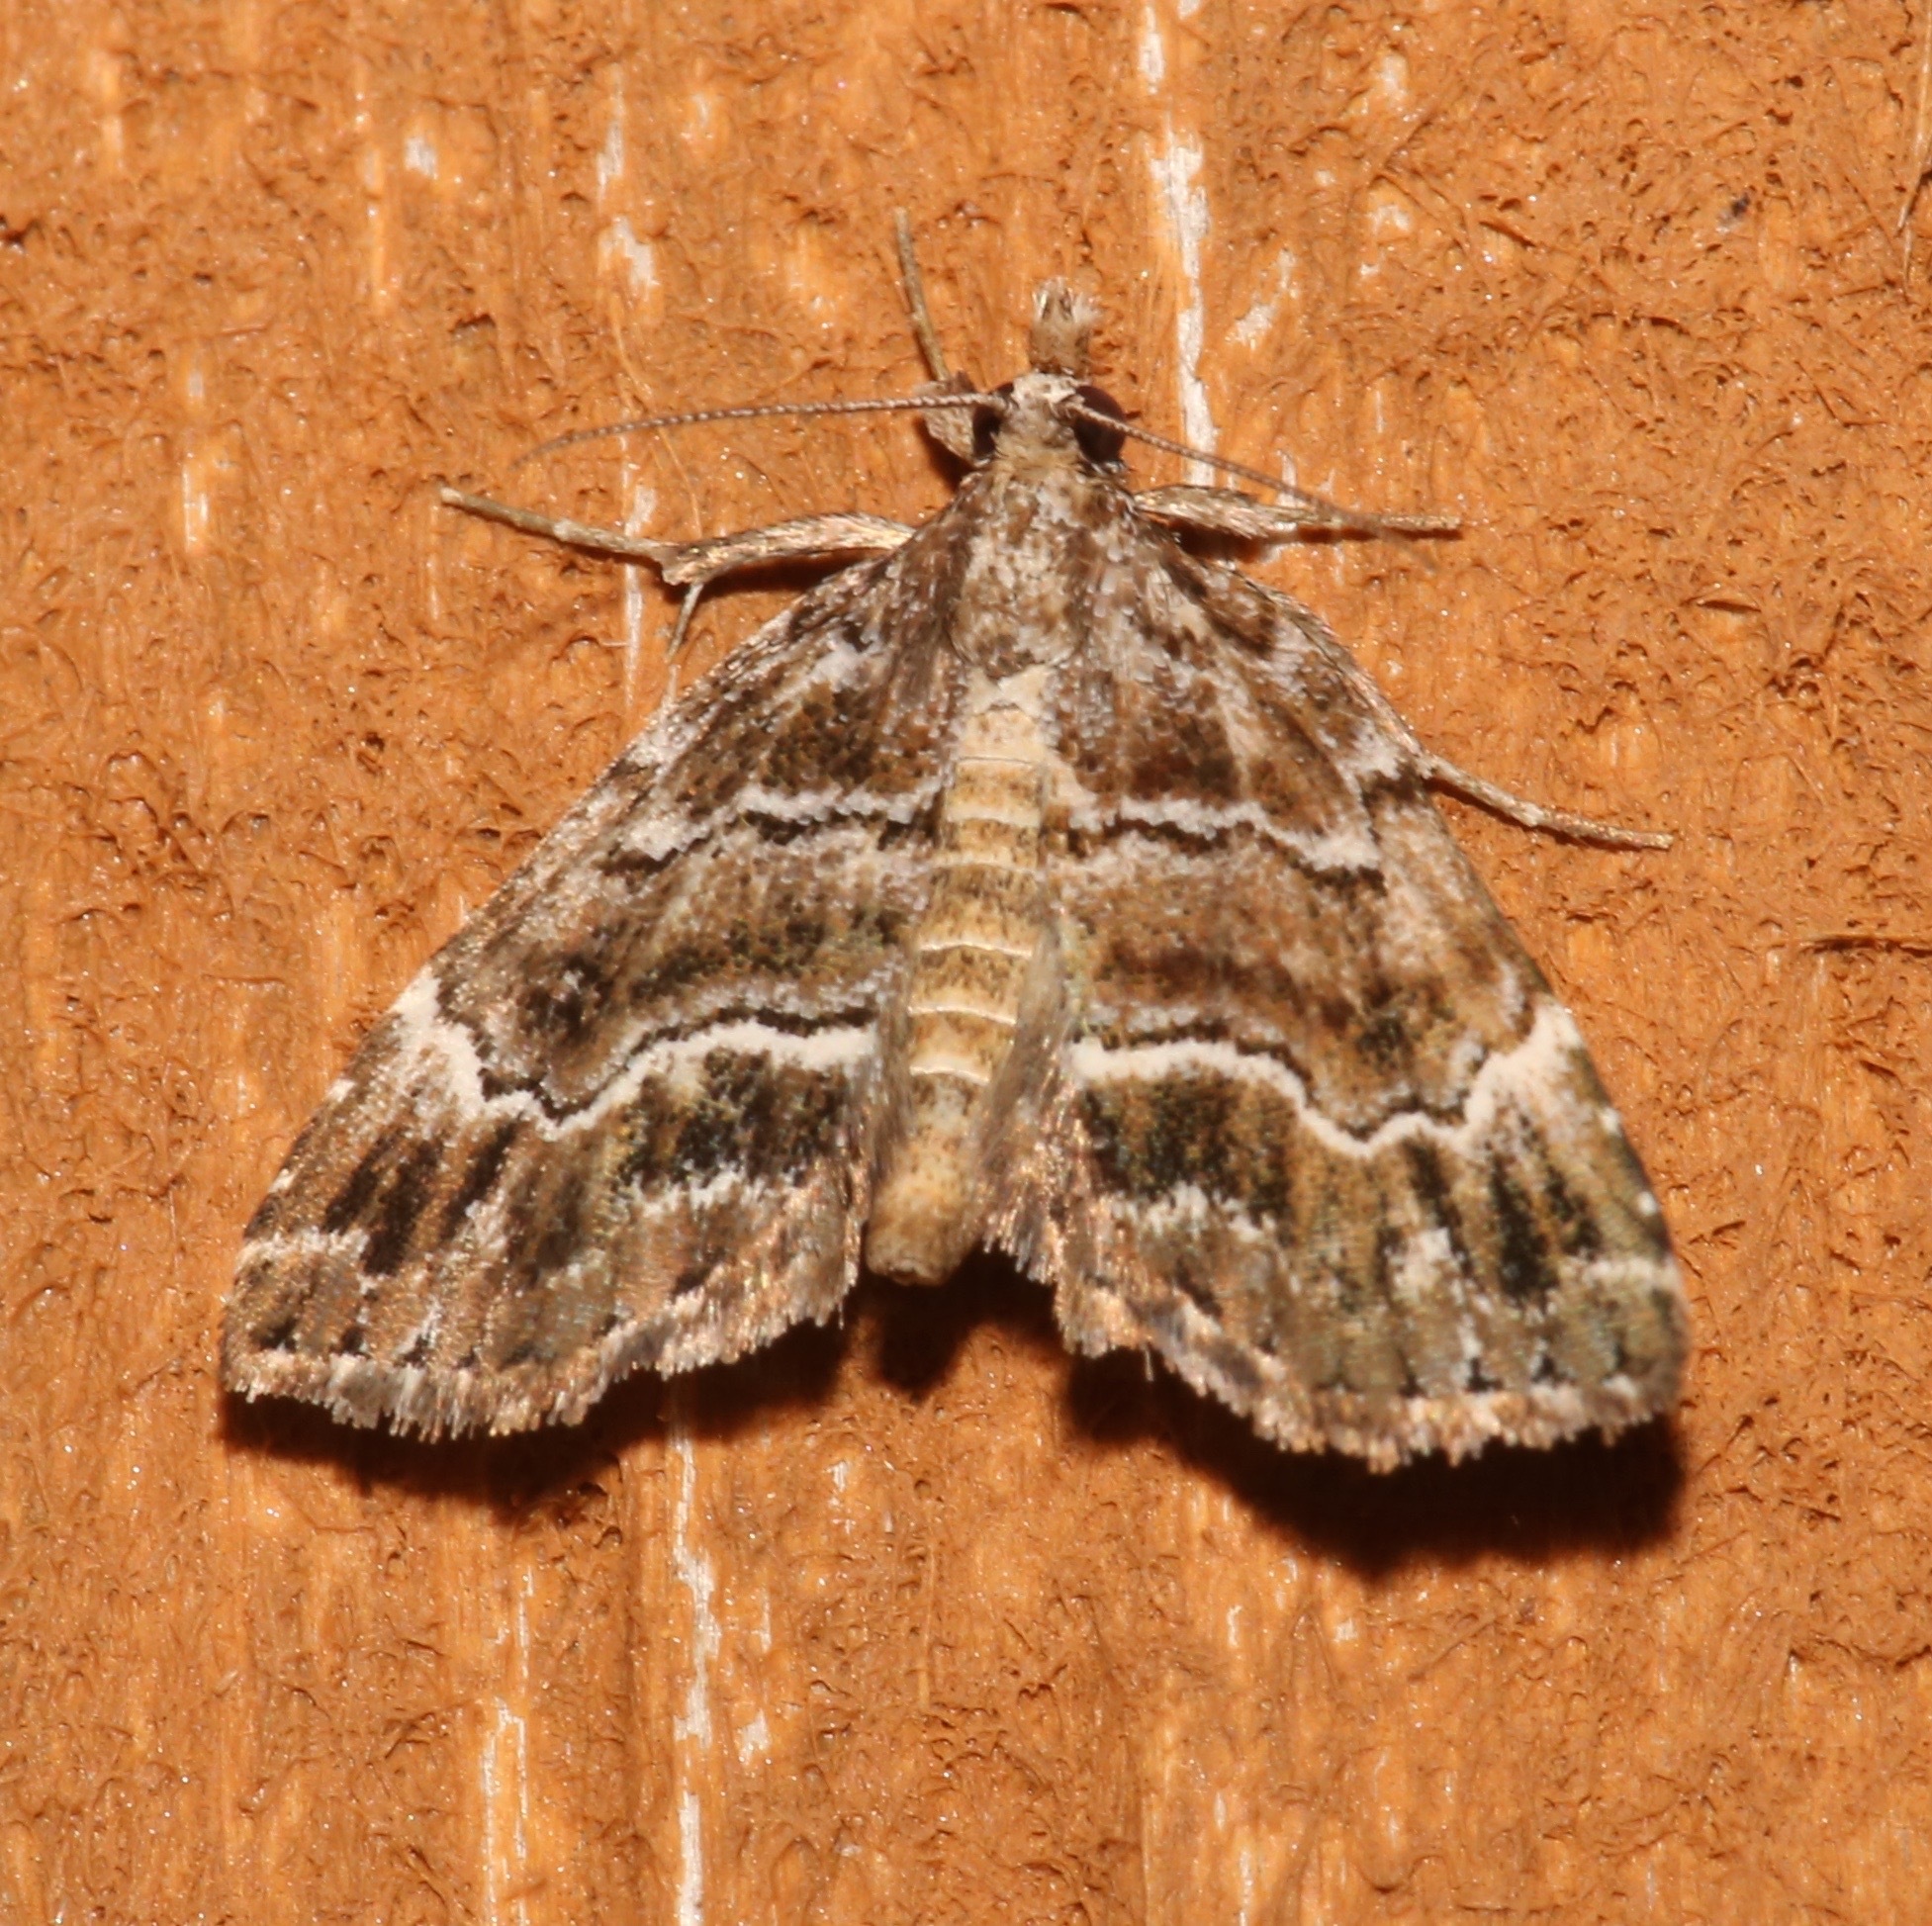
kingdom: Animalia
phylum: Arthropoda
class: Insecta
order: Lepidoptera
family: Erebidae
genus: Cutina
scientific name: Cutina arcuata
